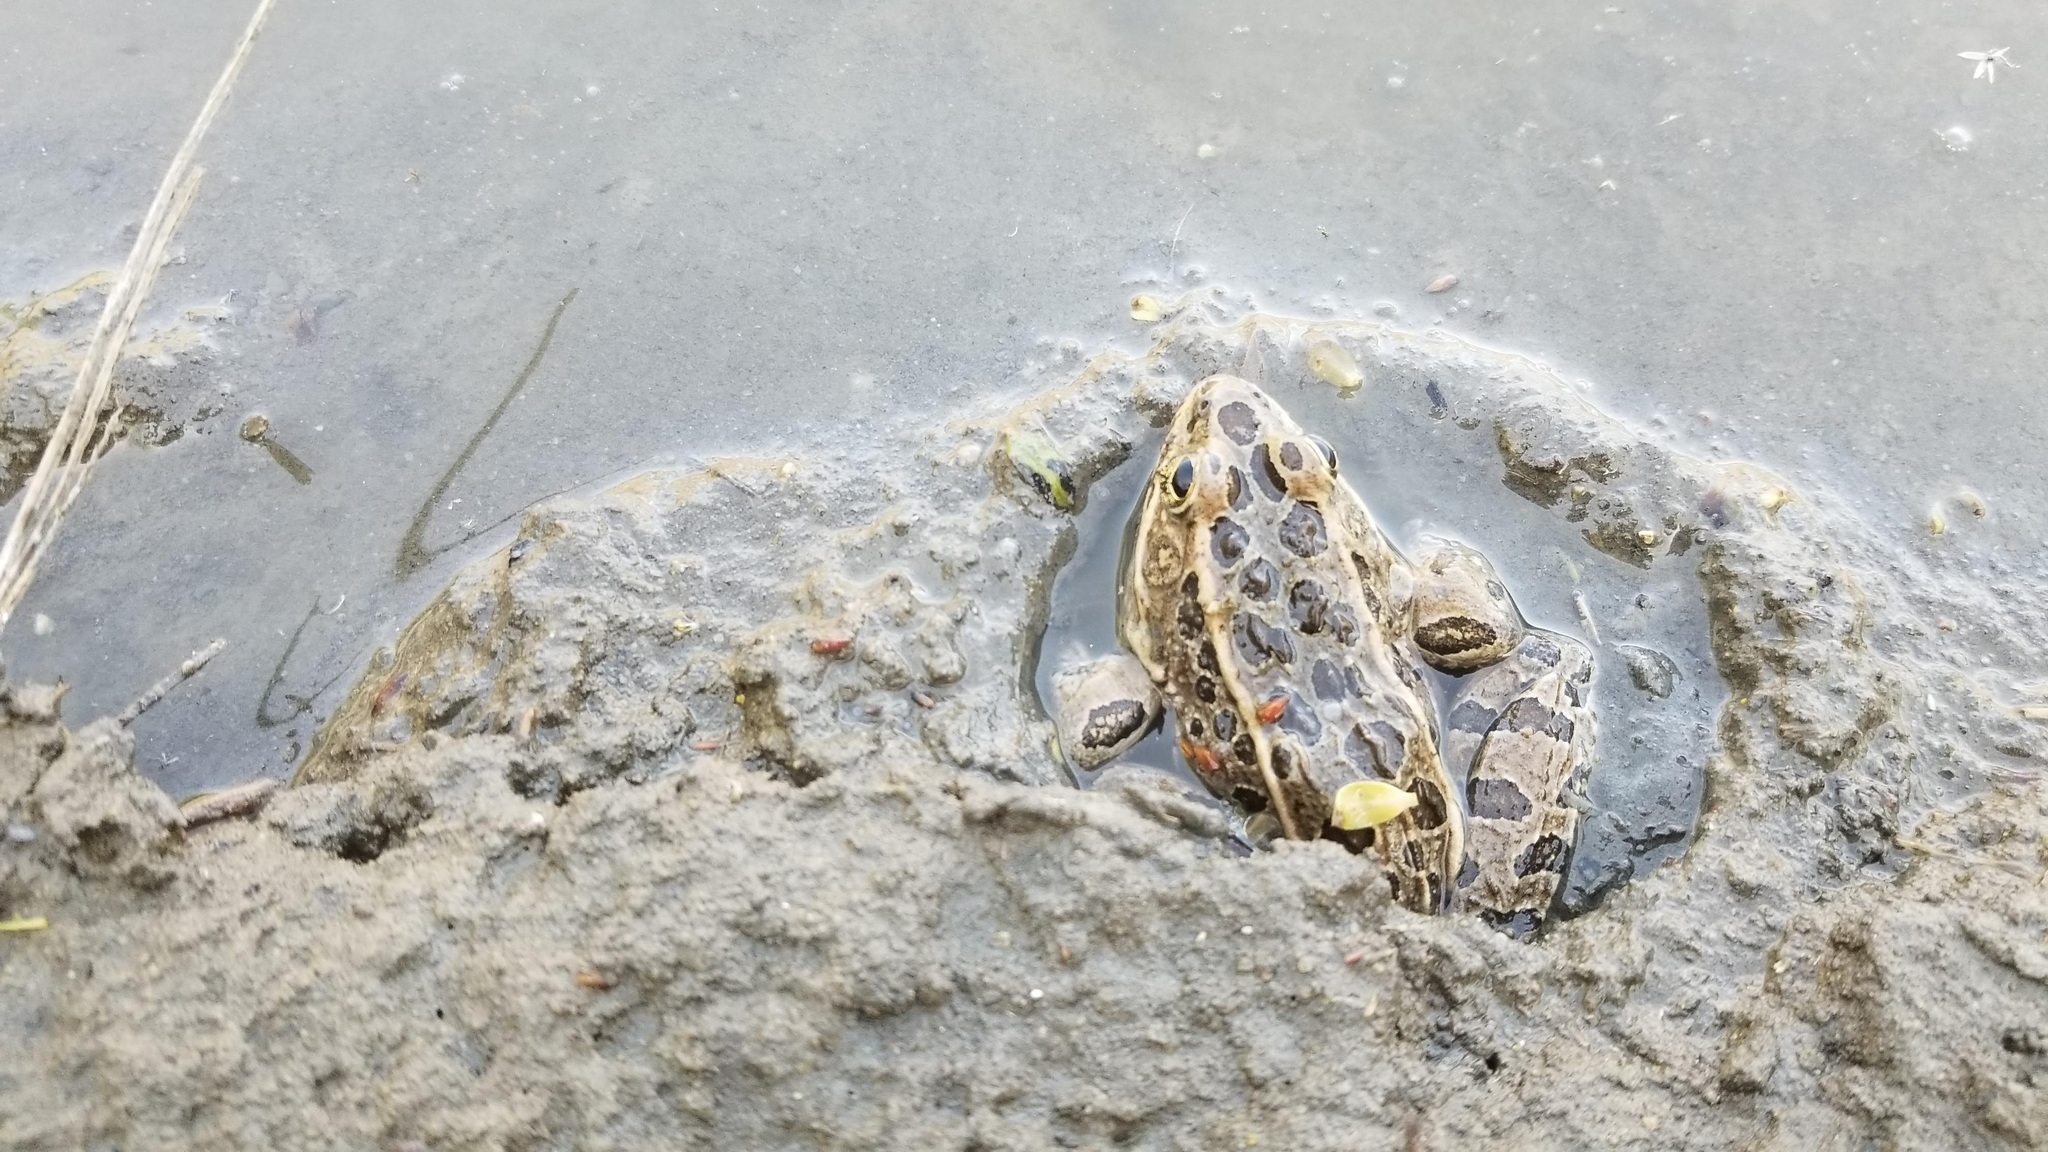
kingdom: Animalia
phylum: Chordata
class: Amphibia
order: Anura
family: Ranidae
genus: Lithobates
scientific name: Lithobates pipiens
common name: Northern leopard frog
